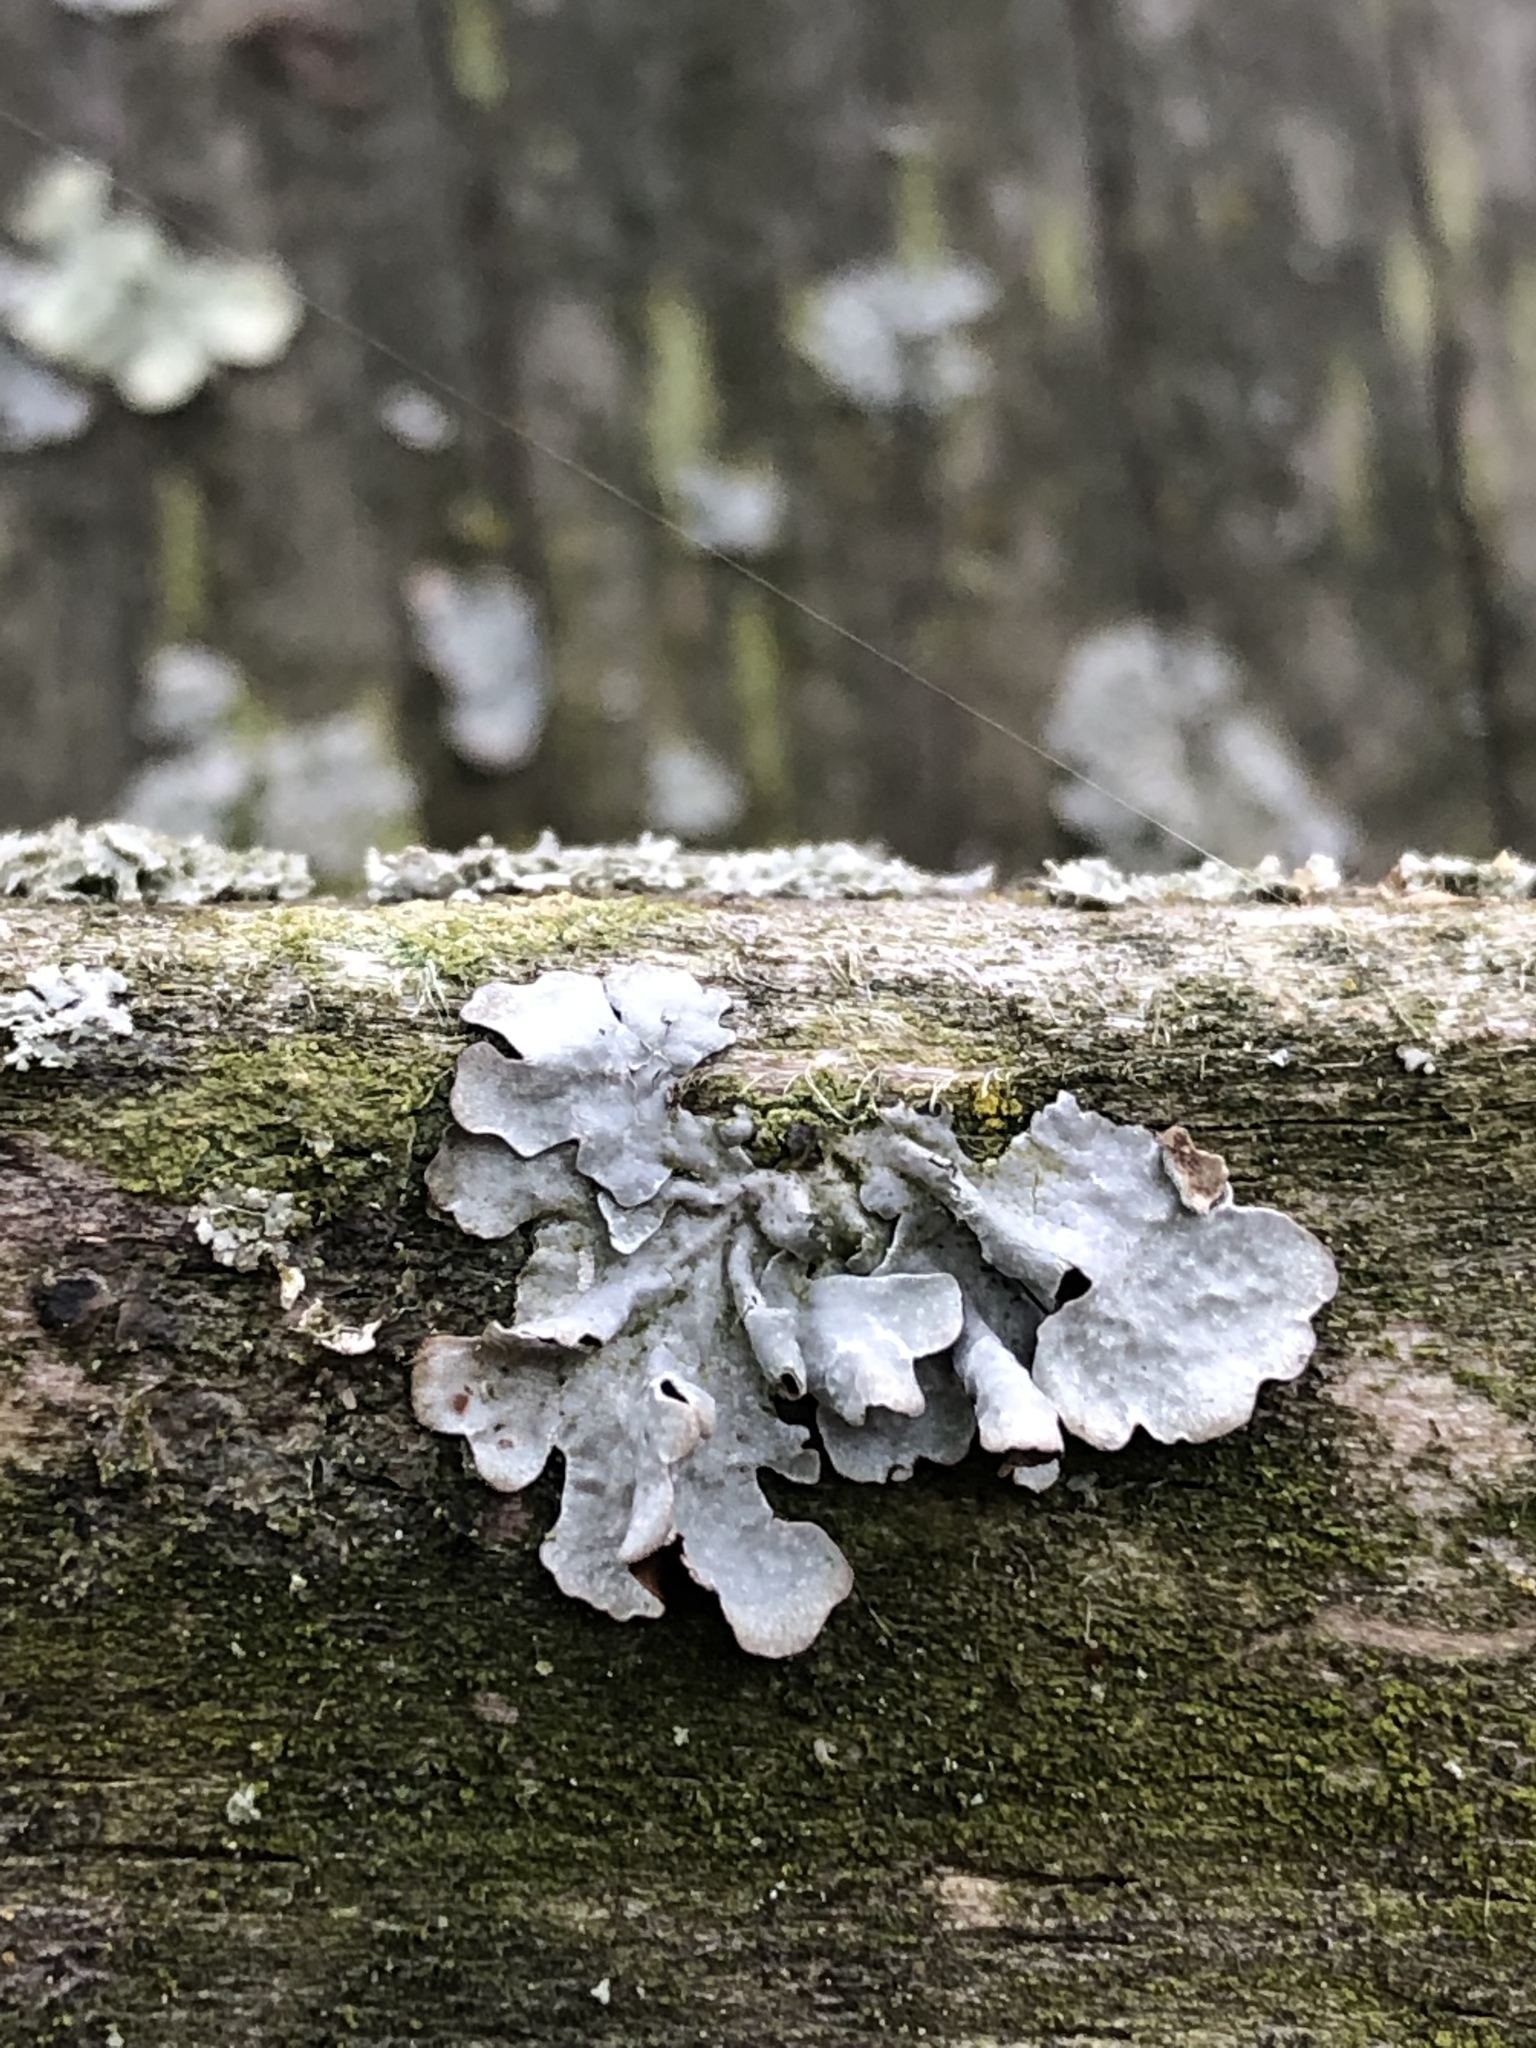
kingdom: Fungi
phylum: Ascomycota
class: Lecanoromycetes
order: Lecanorales
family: Parmeliaceae
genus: Parmelia
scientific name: Parmelia sulcata
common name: Netted shield lichen
